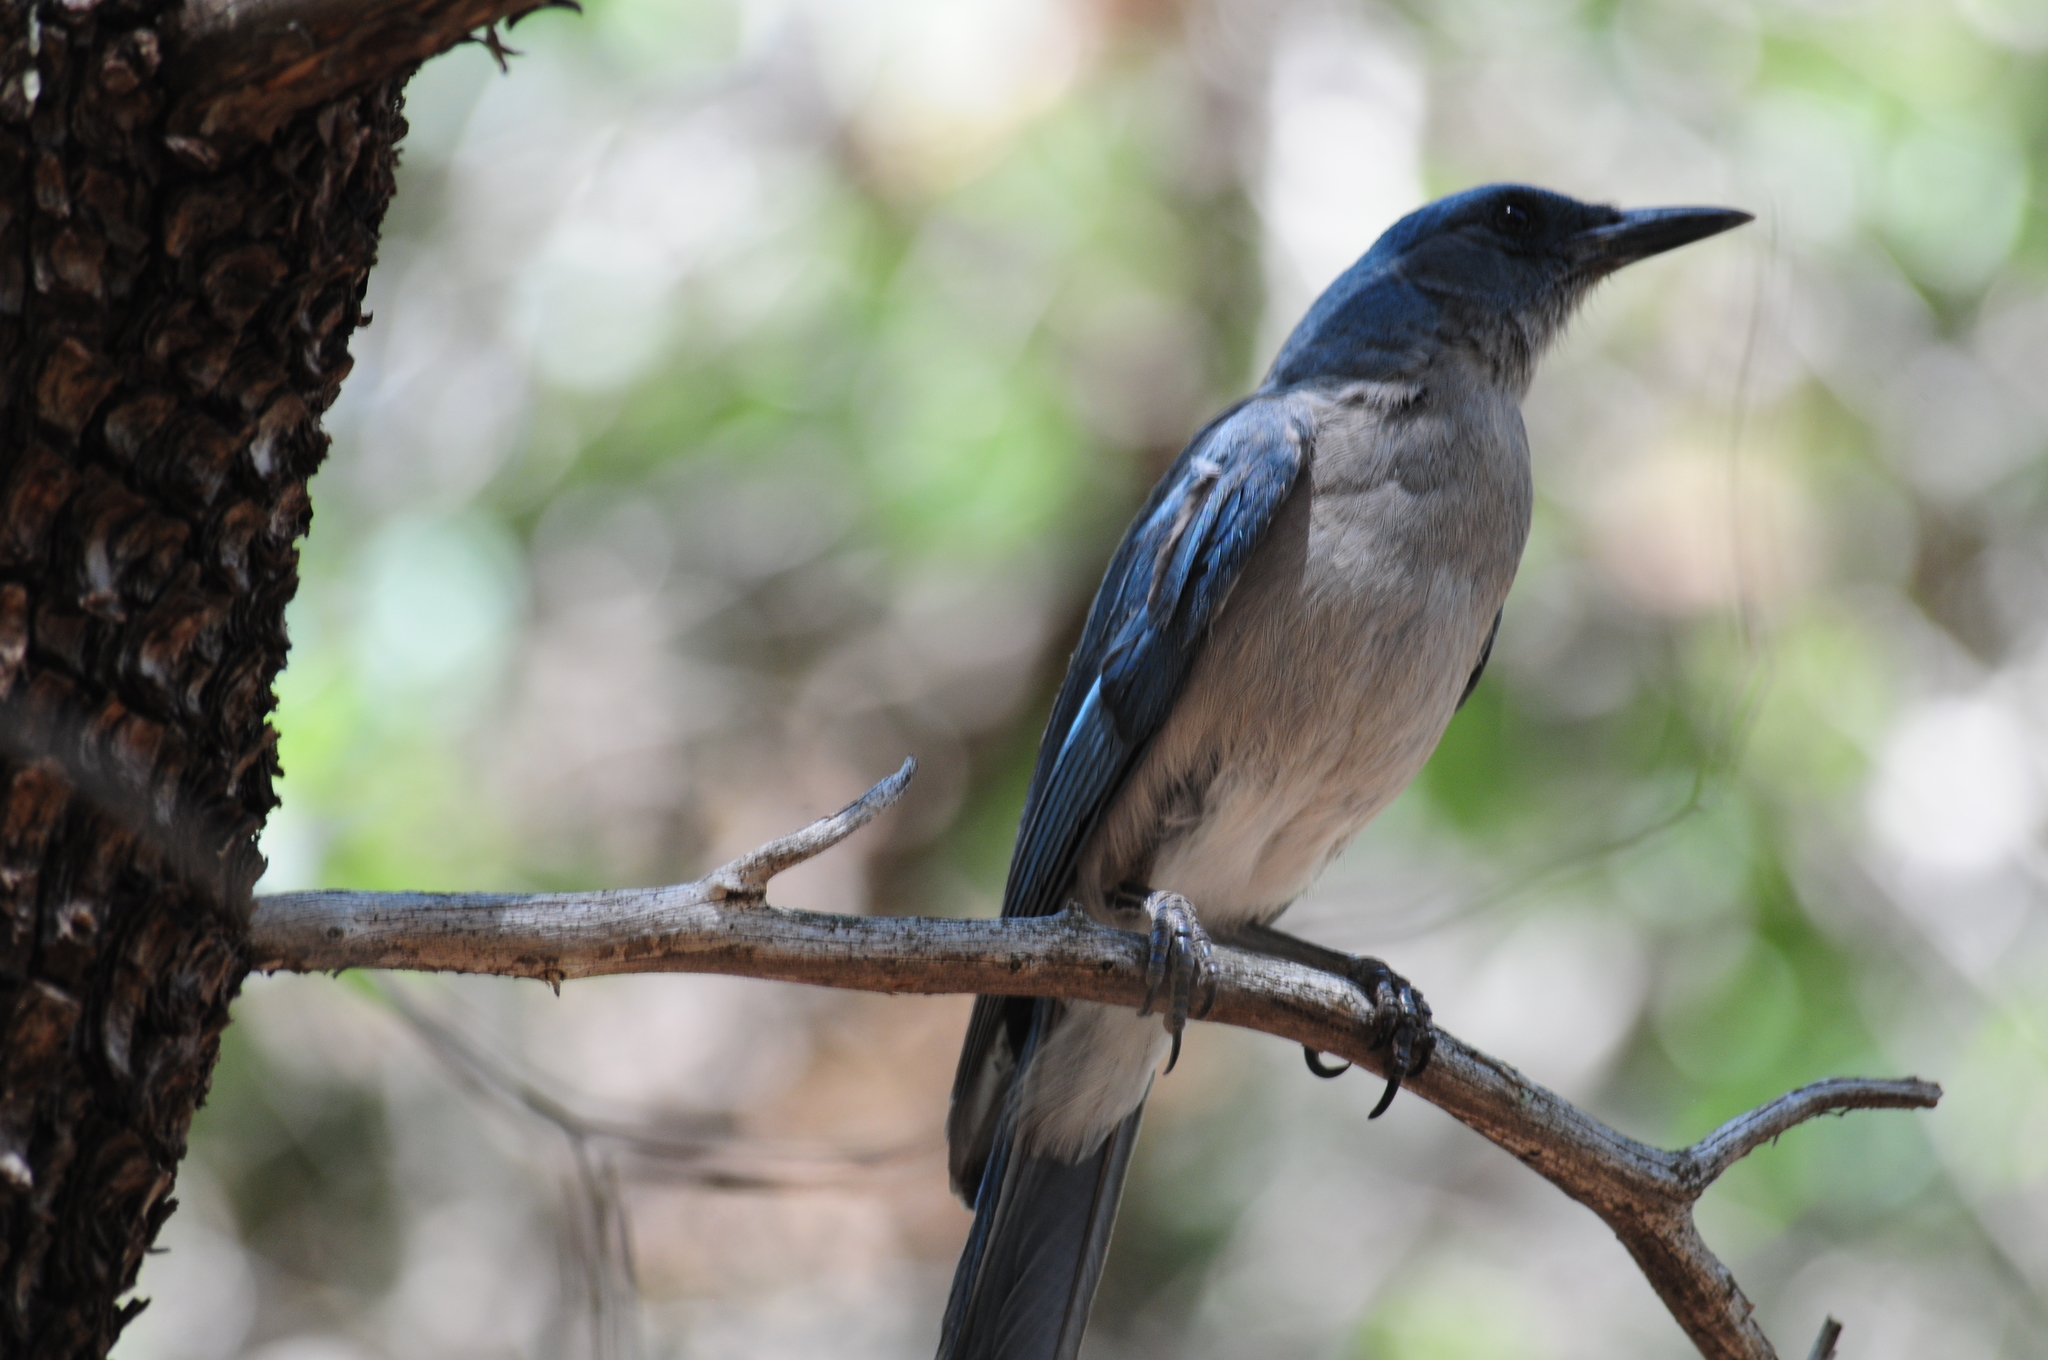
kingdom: Animalia
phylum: Chordata
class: Aves
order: Passeriformes
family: Corvidae
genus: Aphelocoma
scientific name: Aphelocoma wollweberi
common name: Mexican jay
